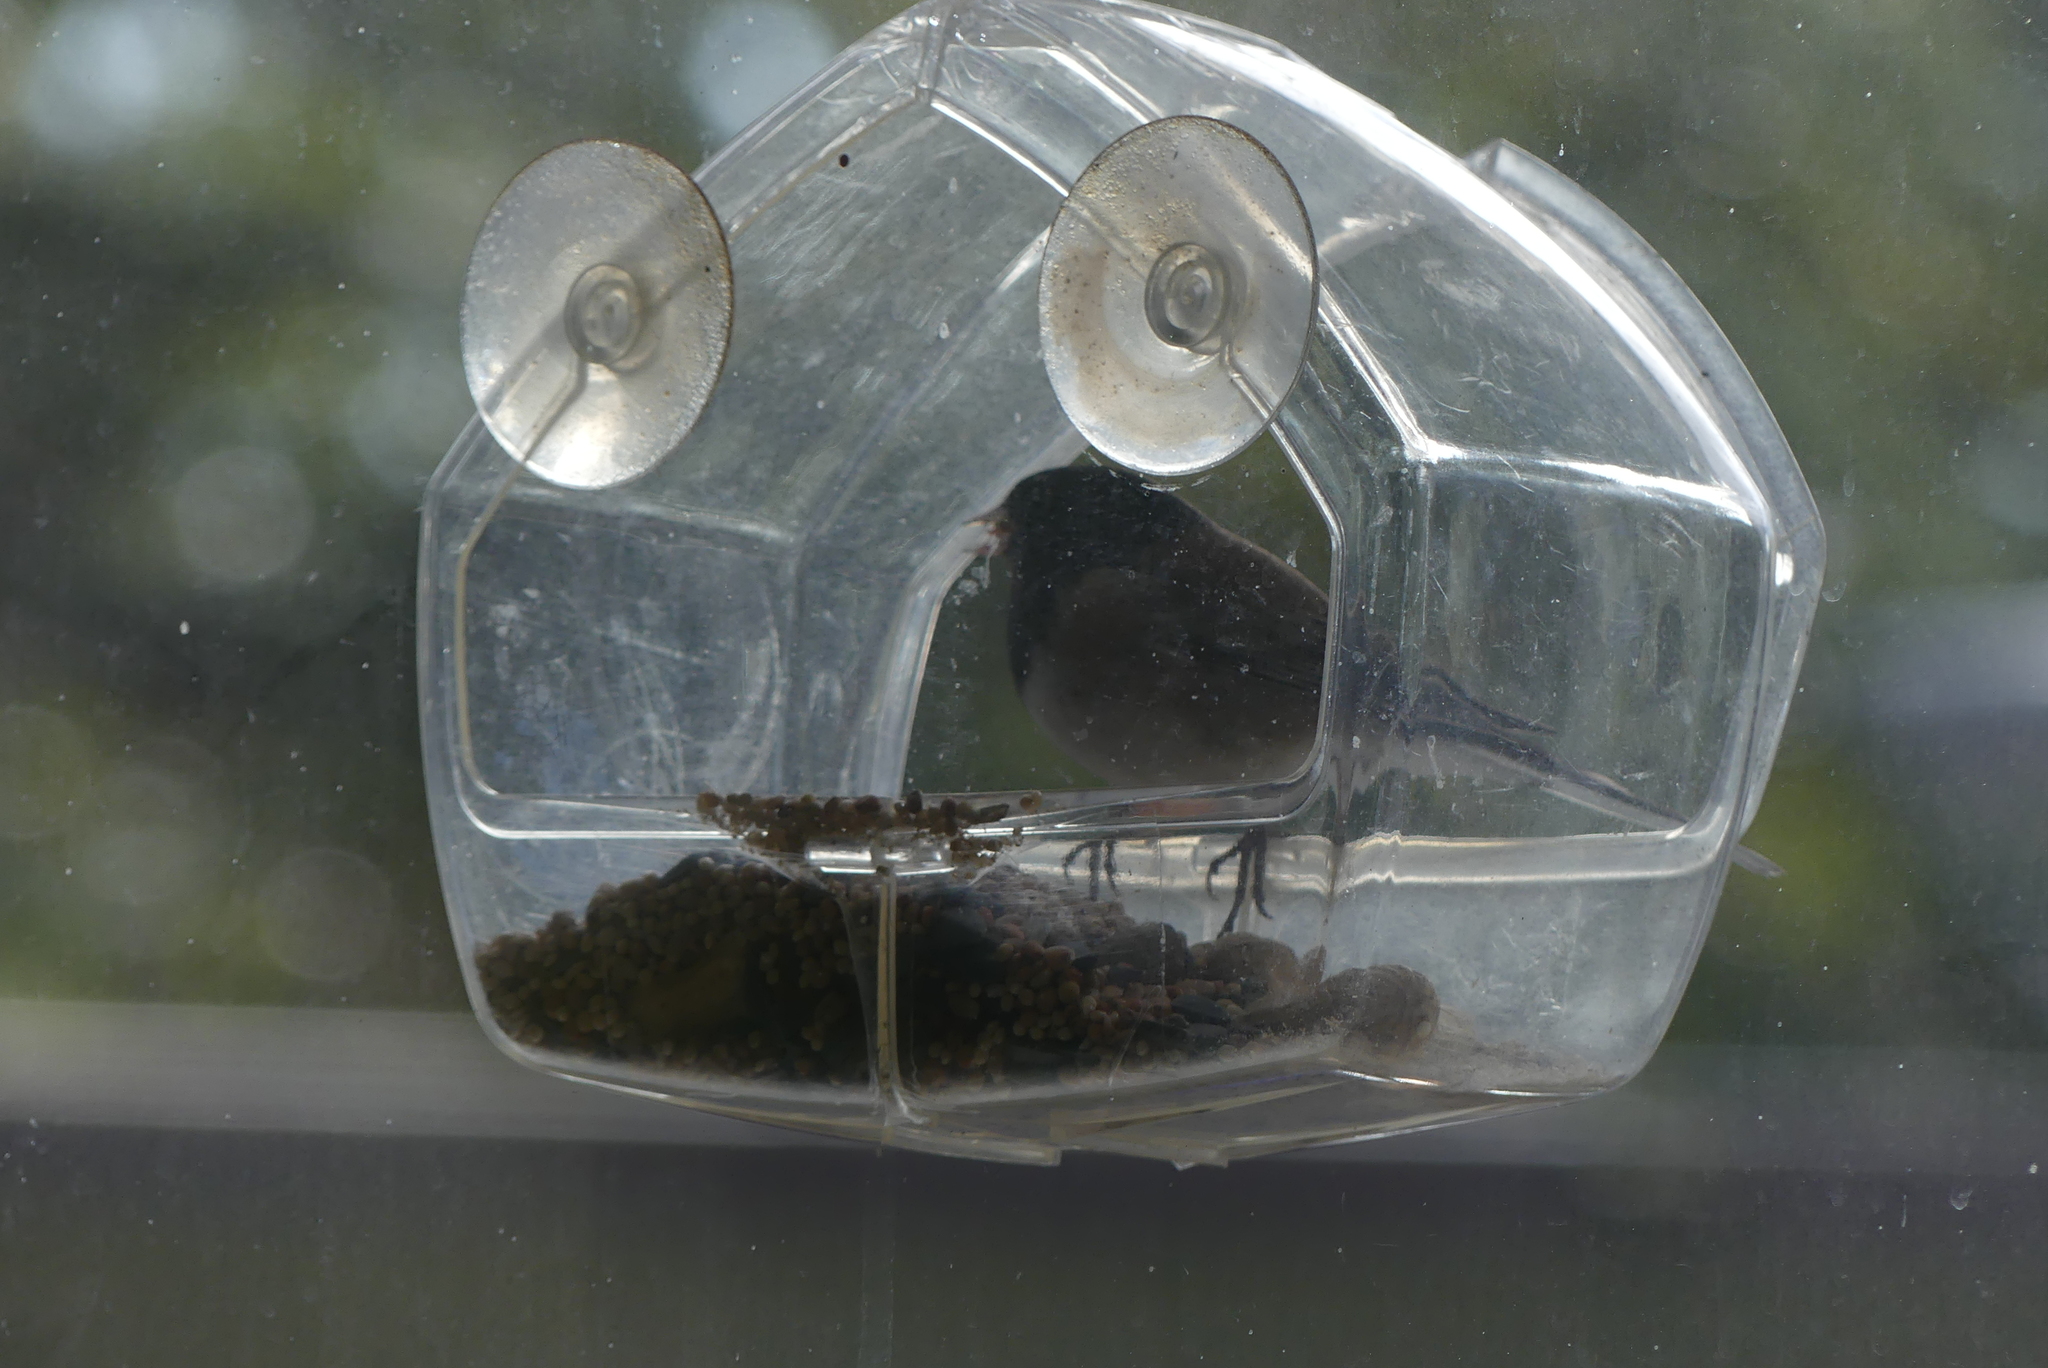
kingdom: Animalia
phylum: Chordata
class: Aves
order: Passeriformes
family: Passerellidae
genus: Junco
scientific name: Junco hyemalis
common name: Dark-eyed junco
